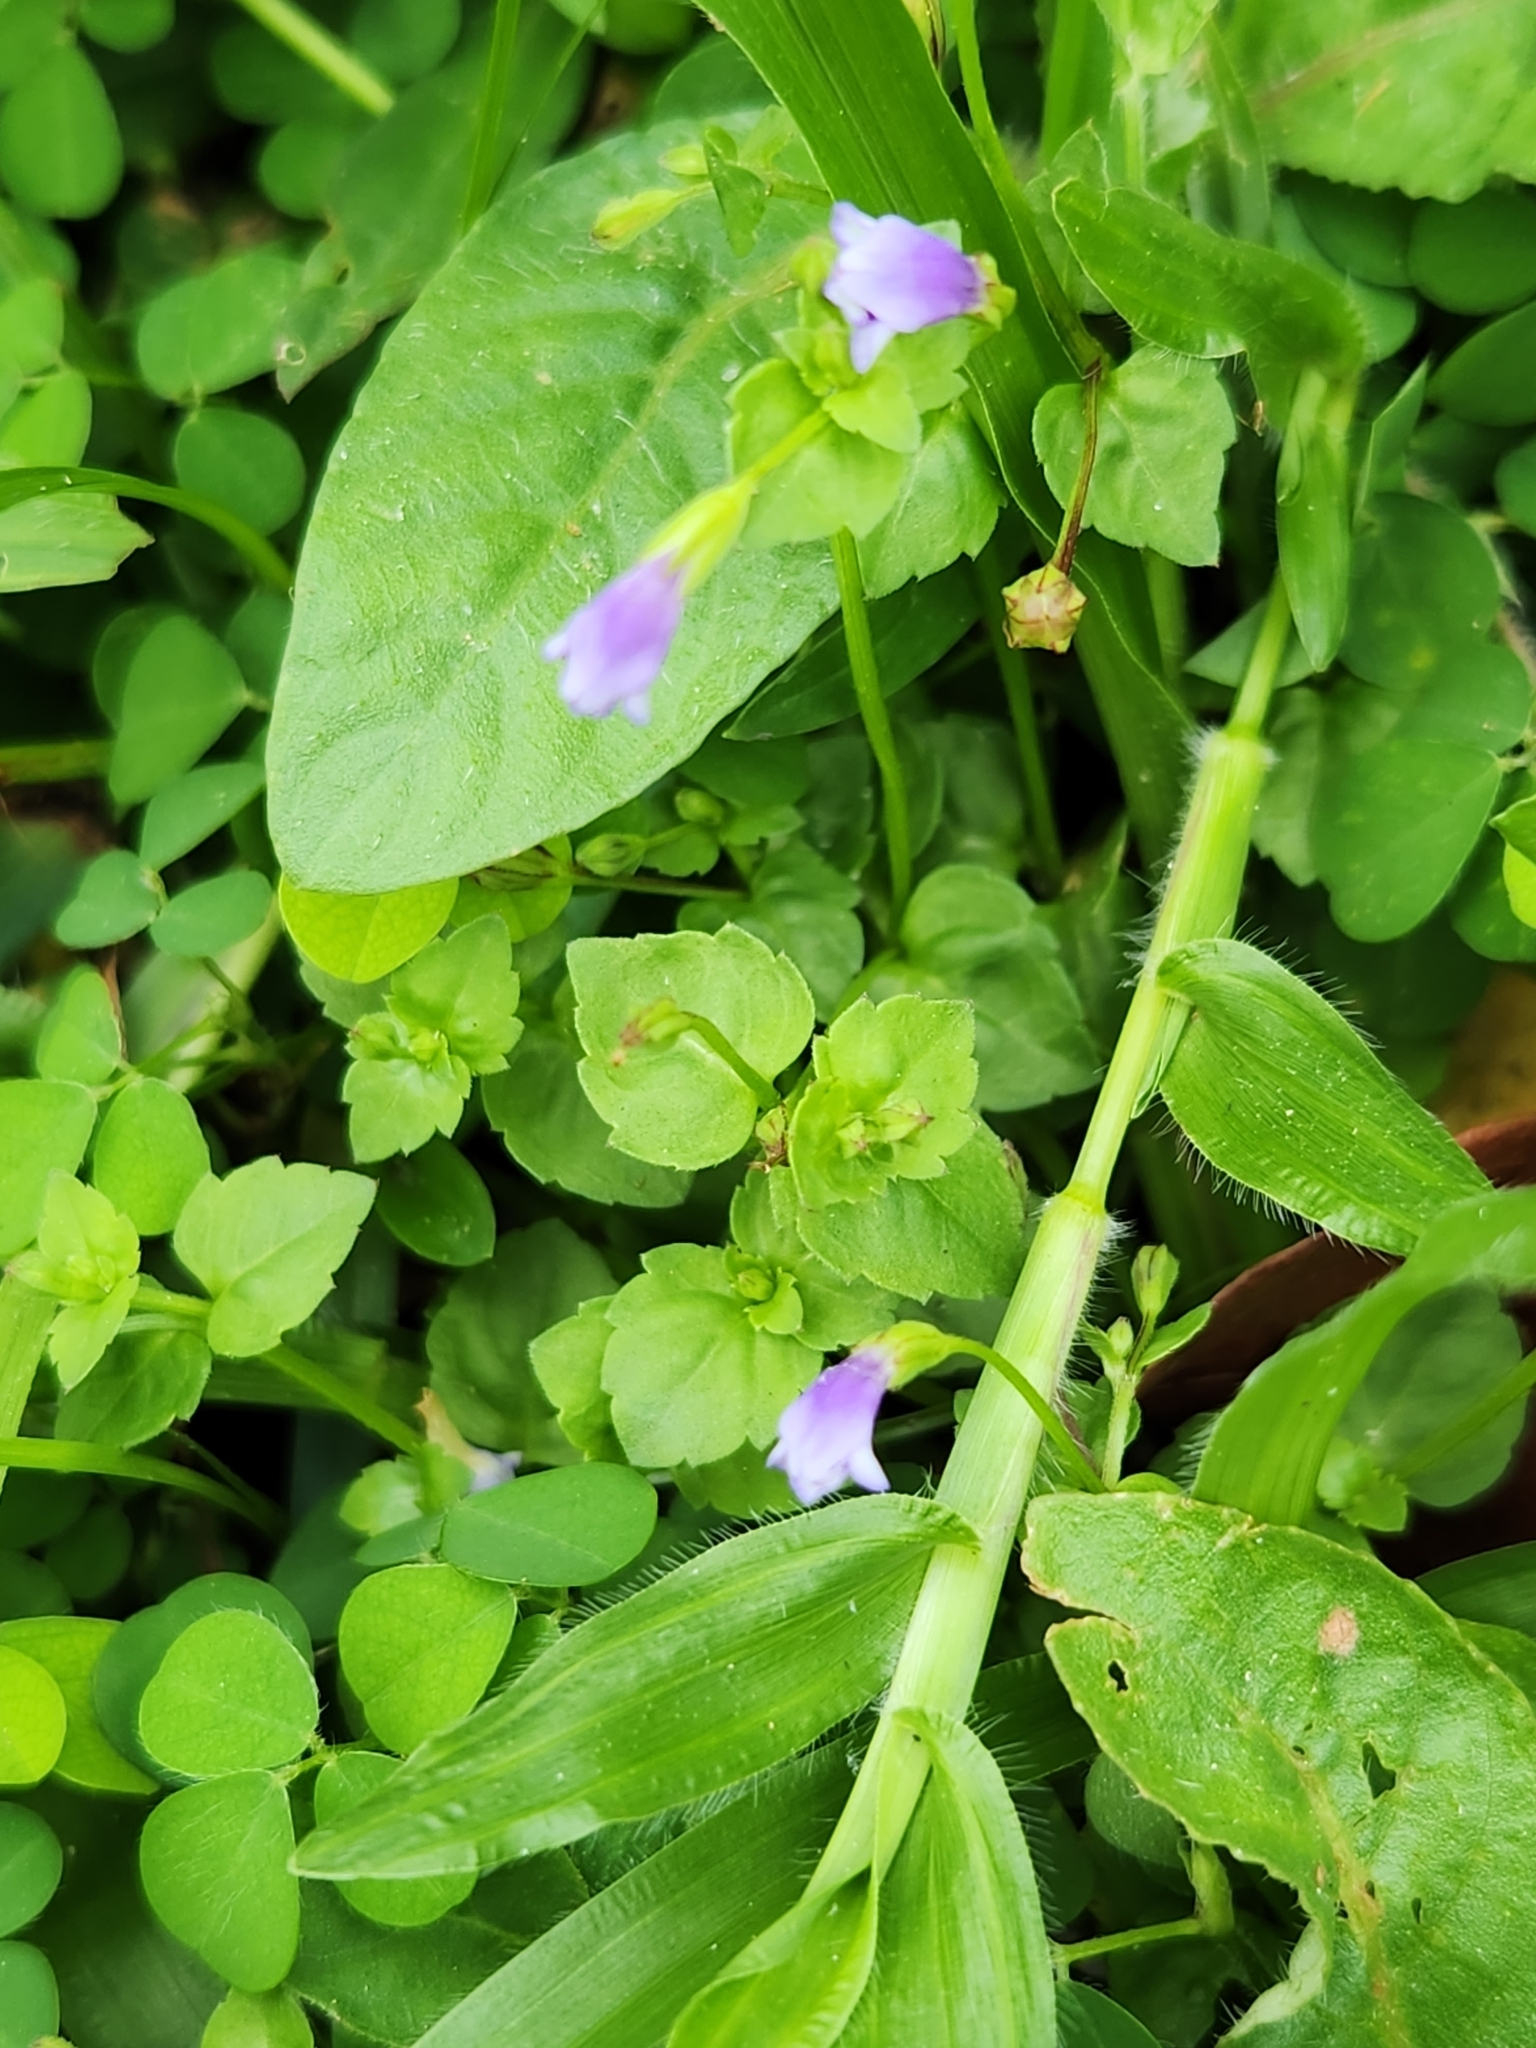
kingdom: Plantae
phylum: Tracheophyta
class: Magnoliopsida
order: Lamiales
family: Linderniaceae
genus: Torenia
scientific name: Torenia crustacea
